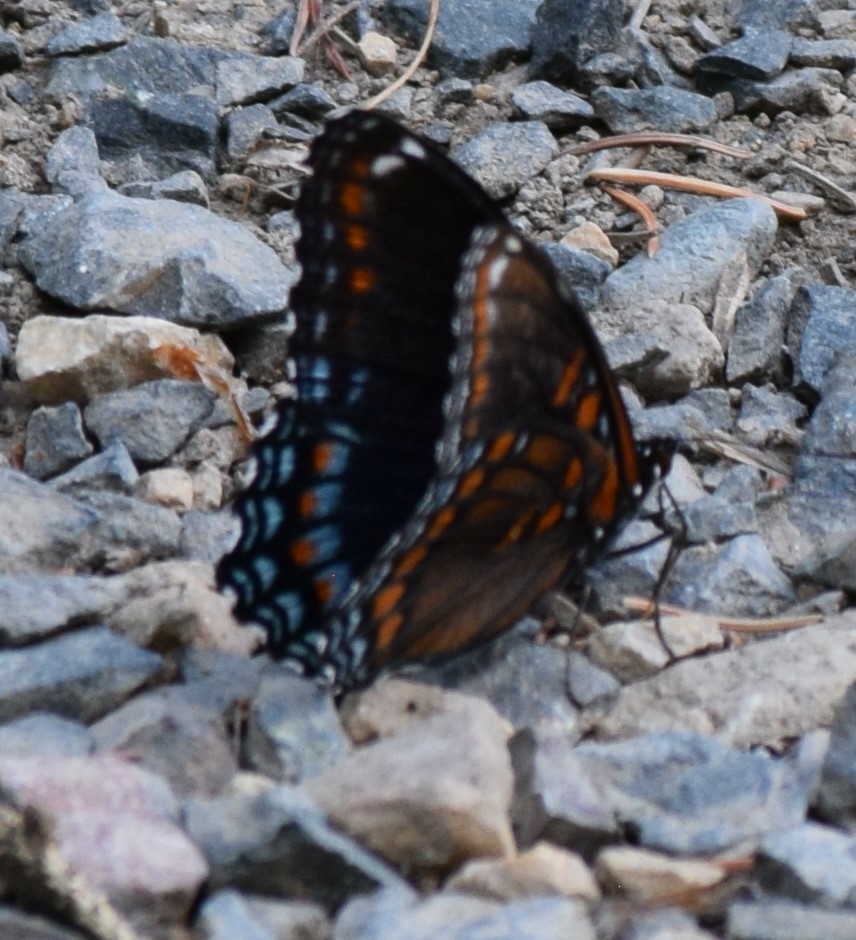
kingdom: Animalia
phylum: Arthropoda
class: Insecta
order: Lepidoptera
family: Nymphalidae
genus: Limenitis
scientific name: Limenitis astyanax
